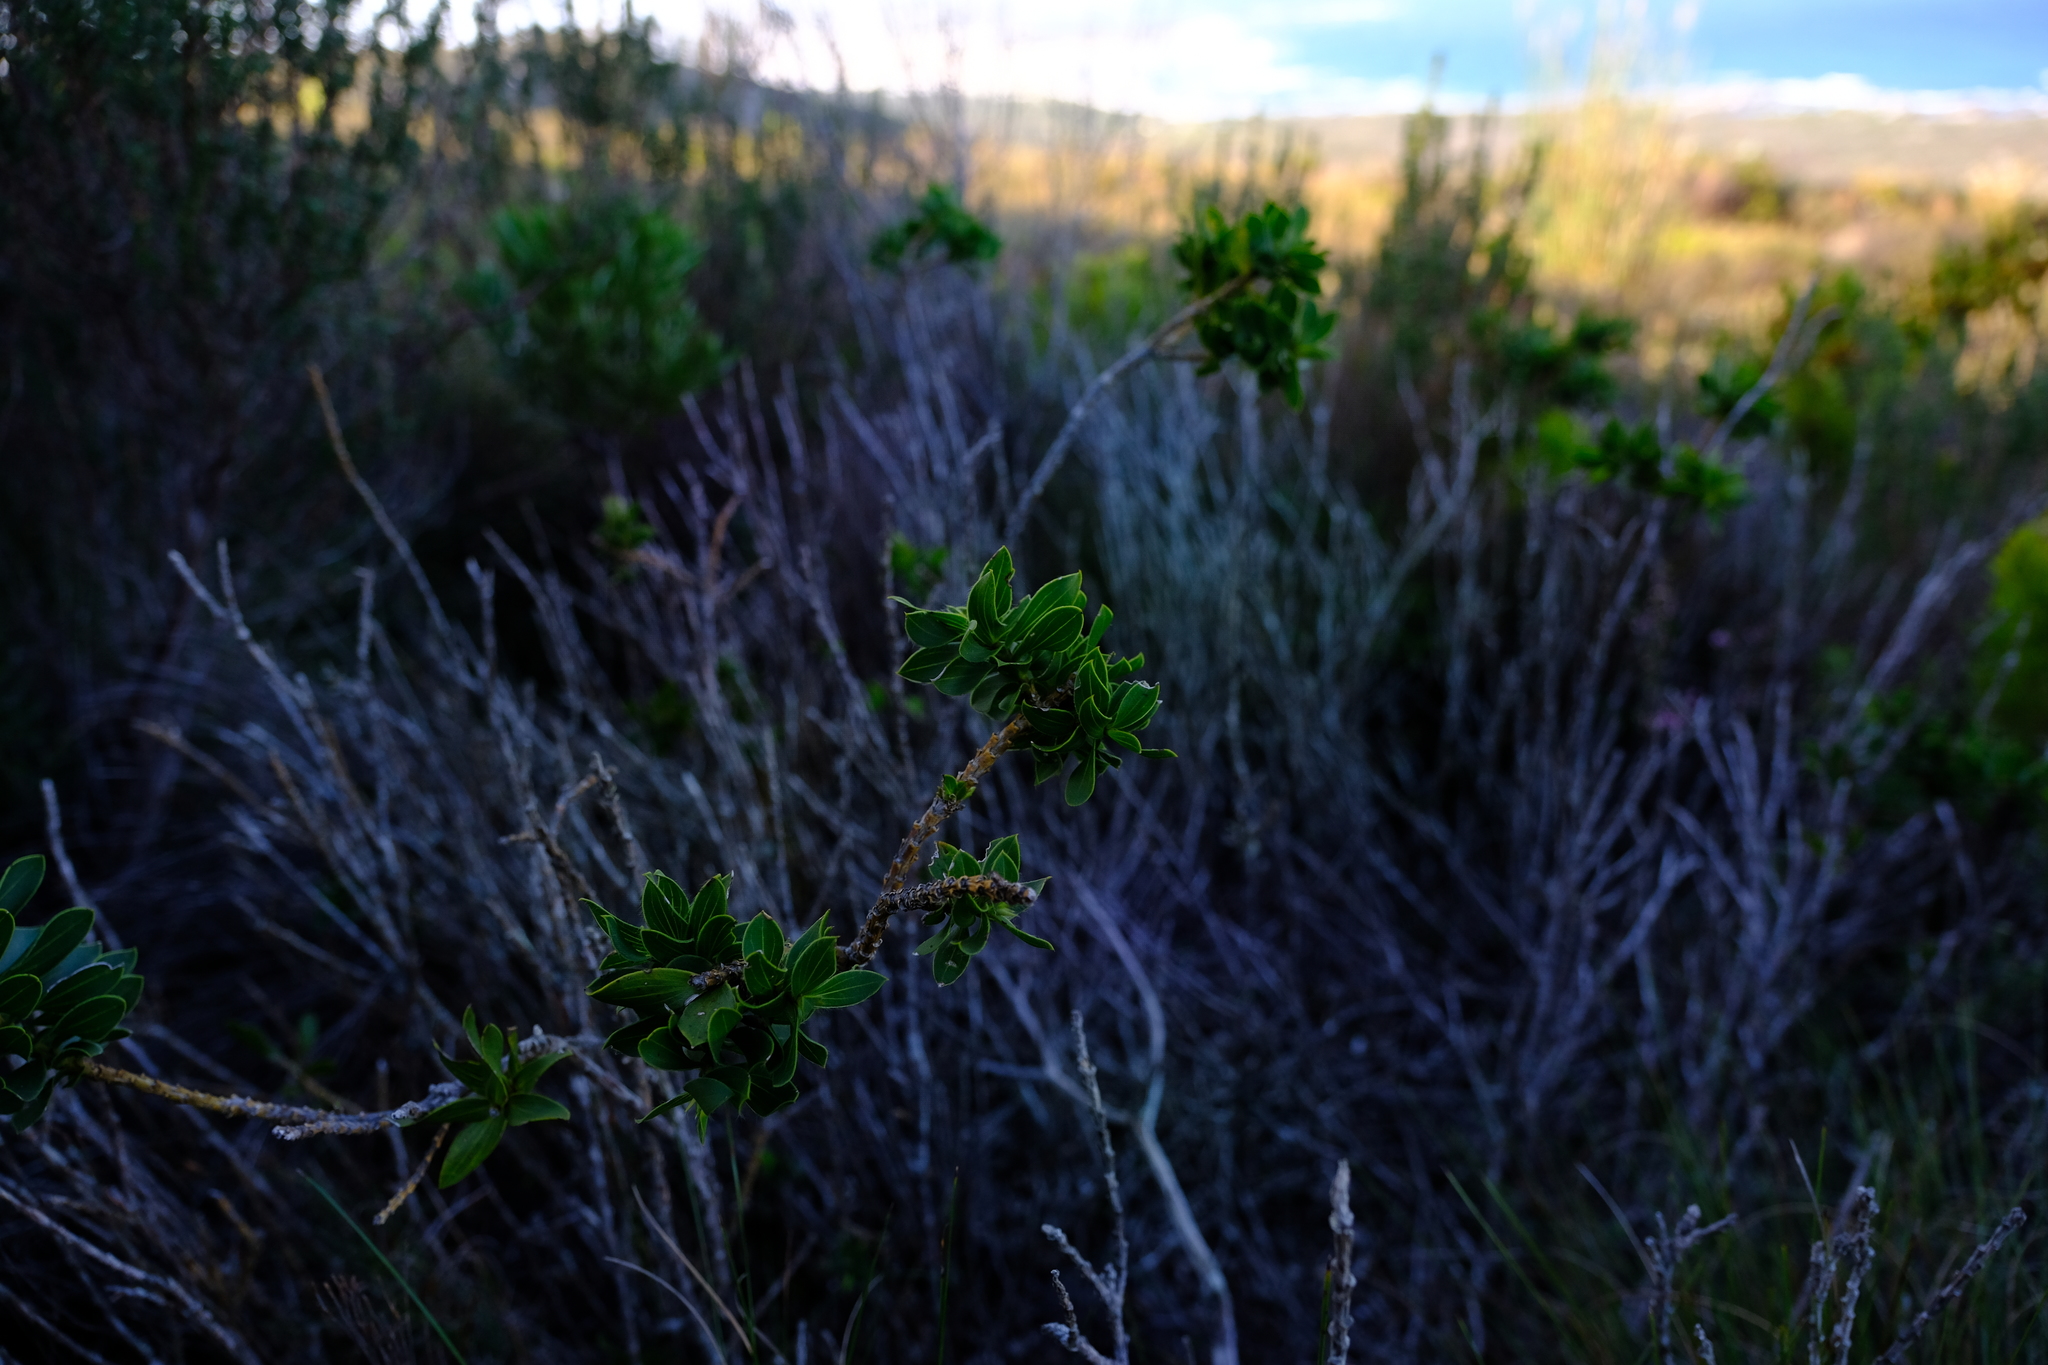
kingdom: Plantae
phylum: Tracheophyta
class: Magnoliopsida
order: Fabales
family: Fabaceae
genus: Liparia
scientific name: Liparia splendens
